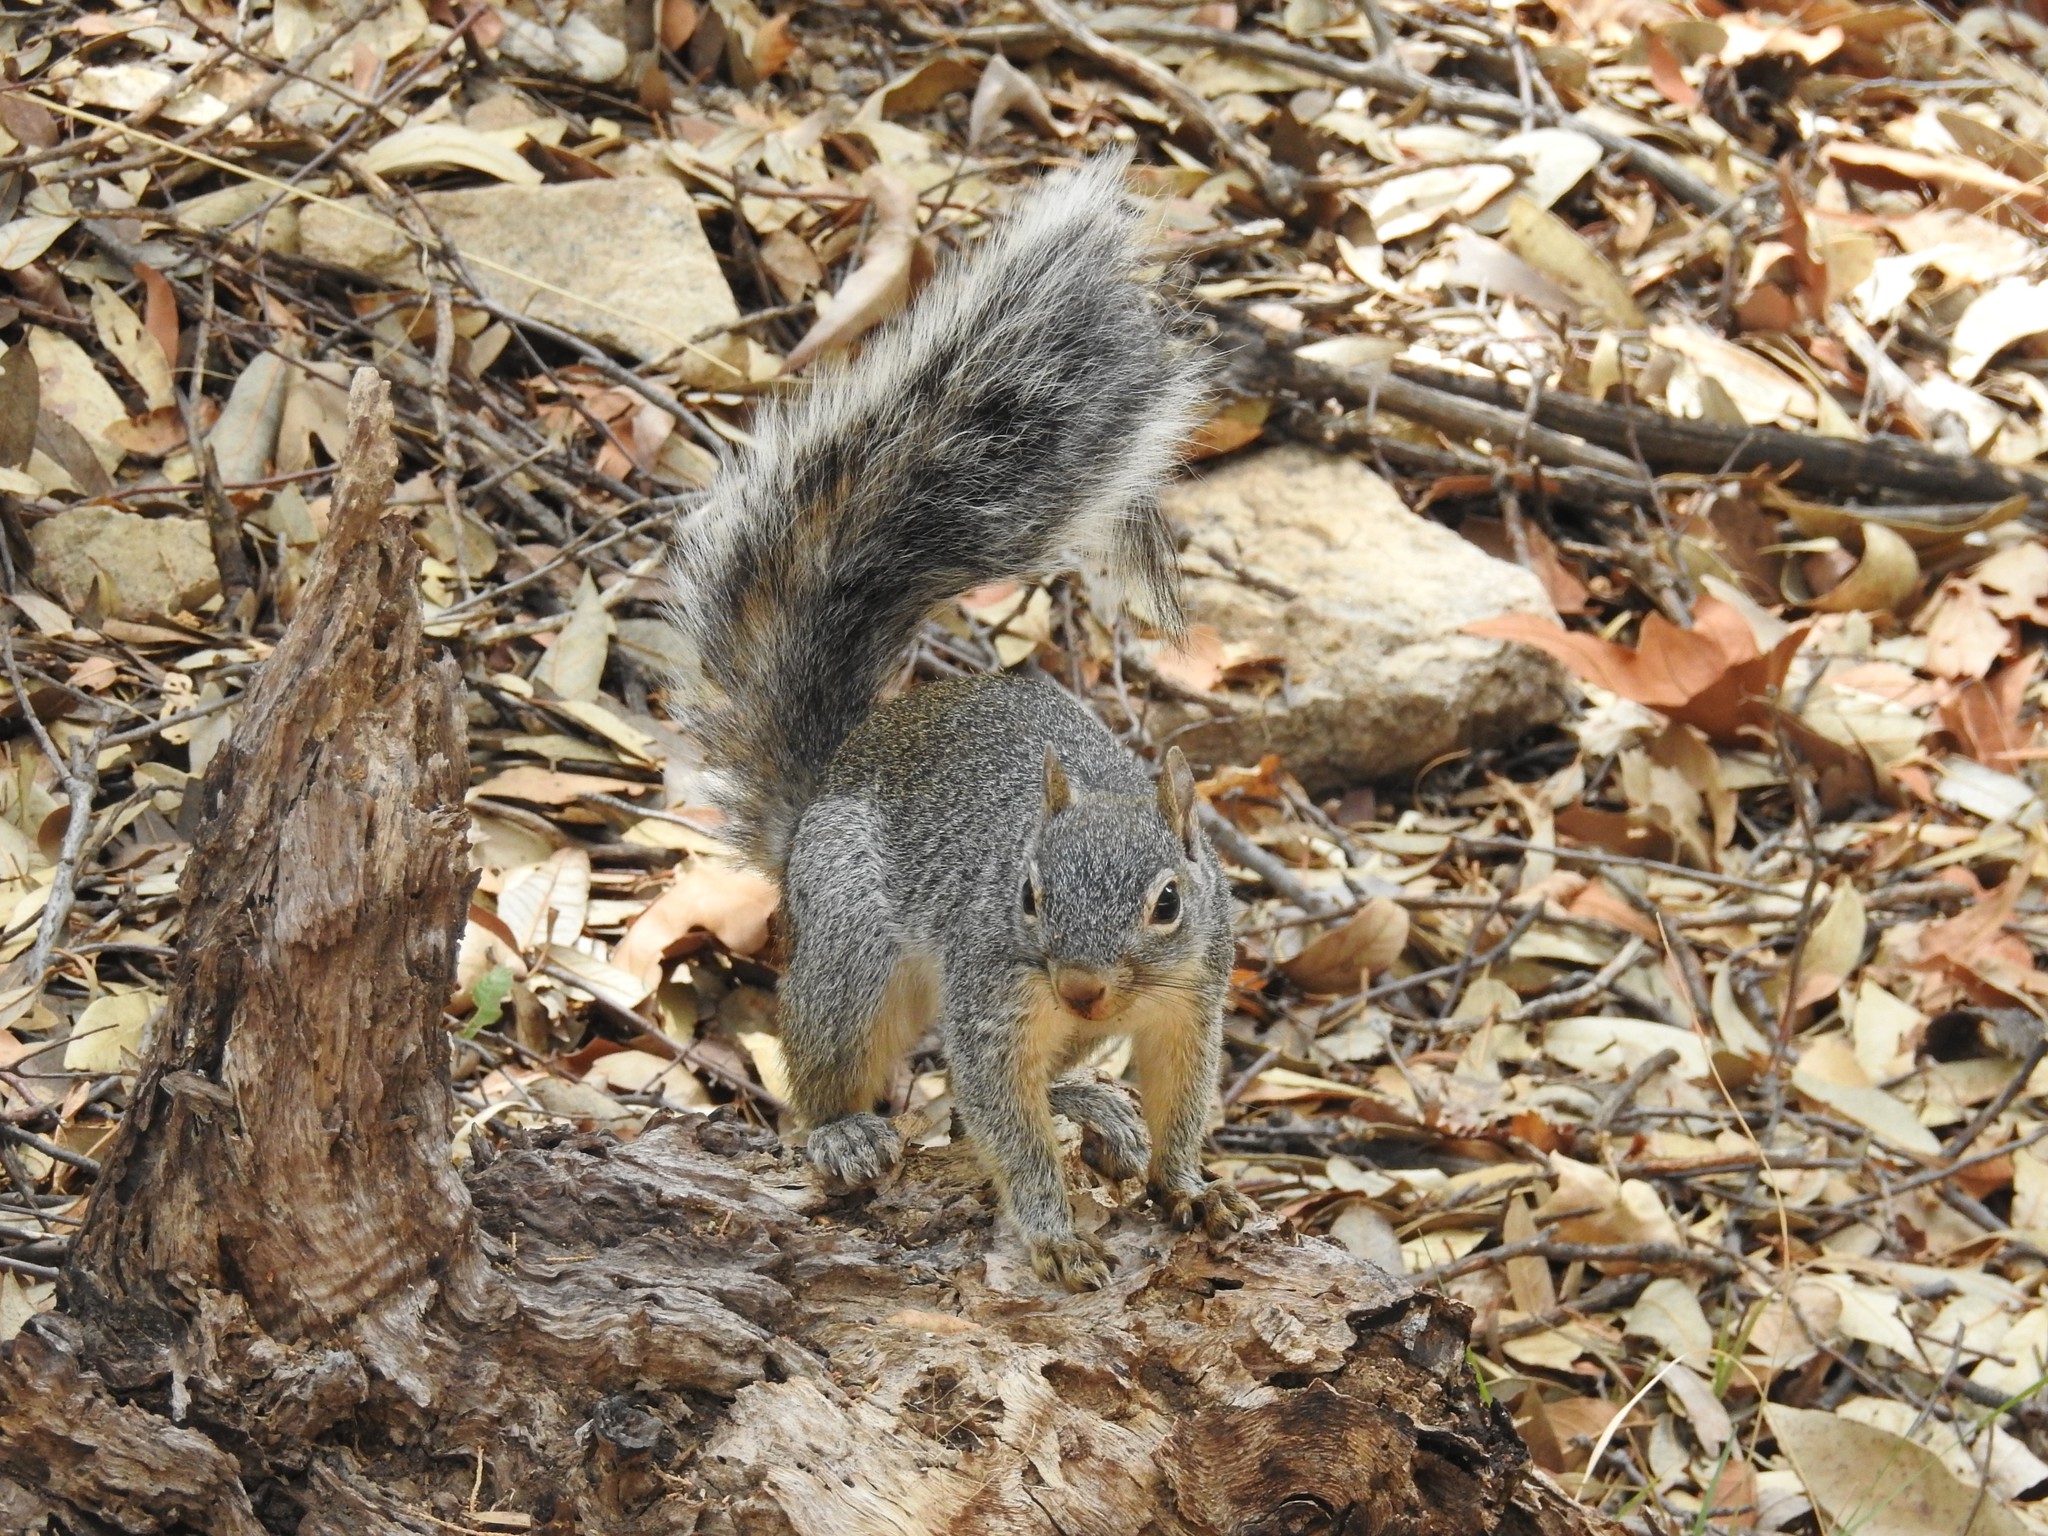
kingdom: Animalia
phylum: Chordata
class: Mammalia
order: Rodentia
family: Sciuridae
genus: Sciurus
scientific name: Sciurus arizonensis
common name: Arizona gray squirrel
